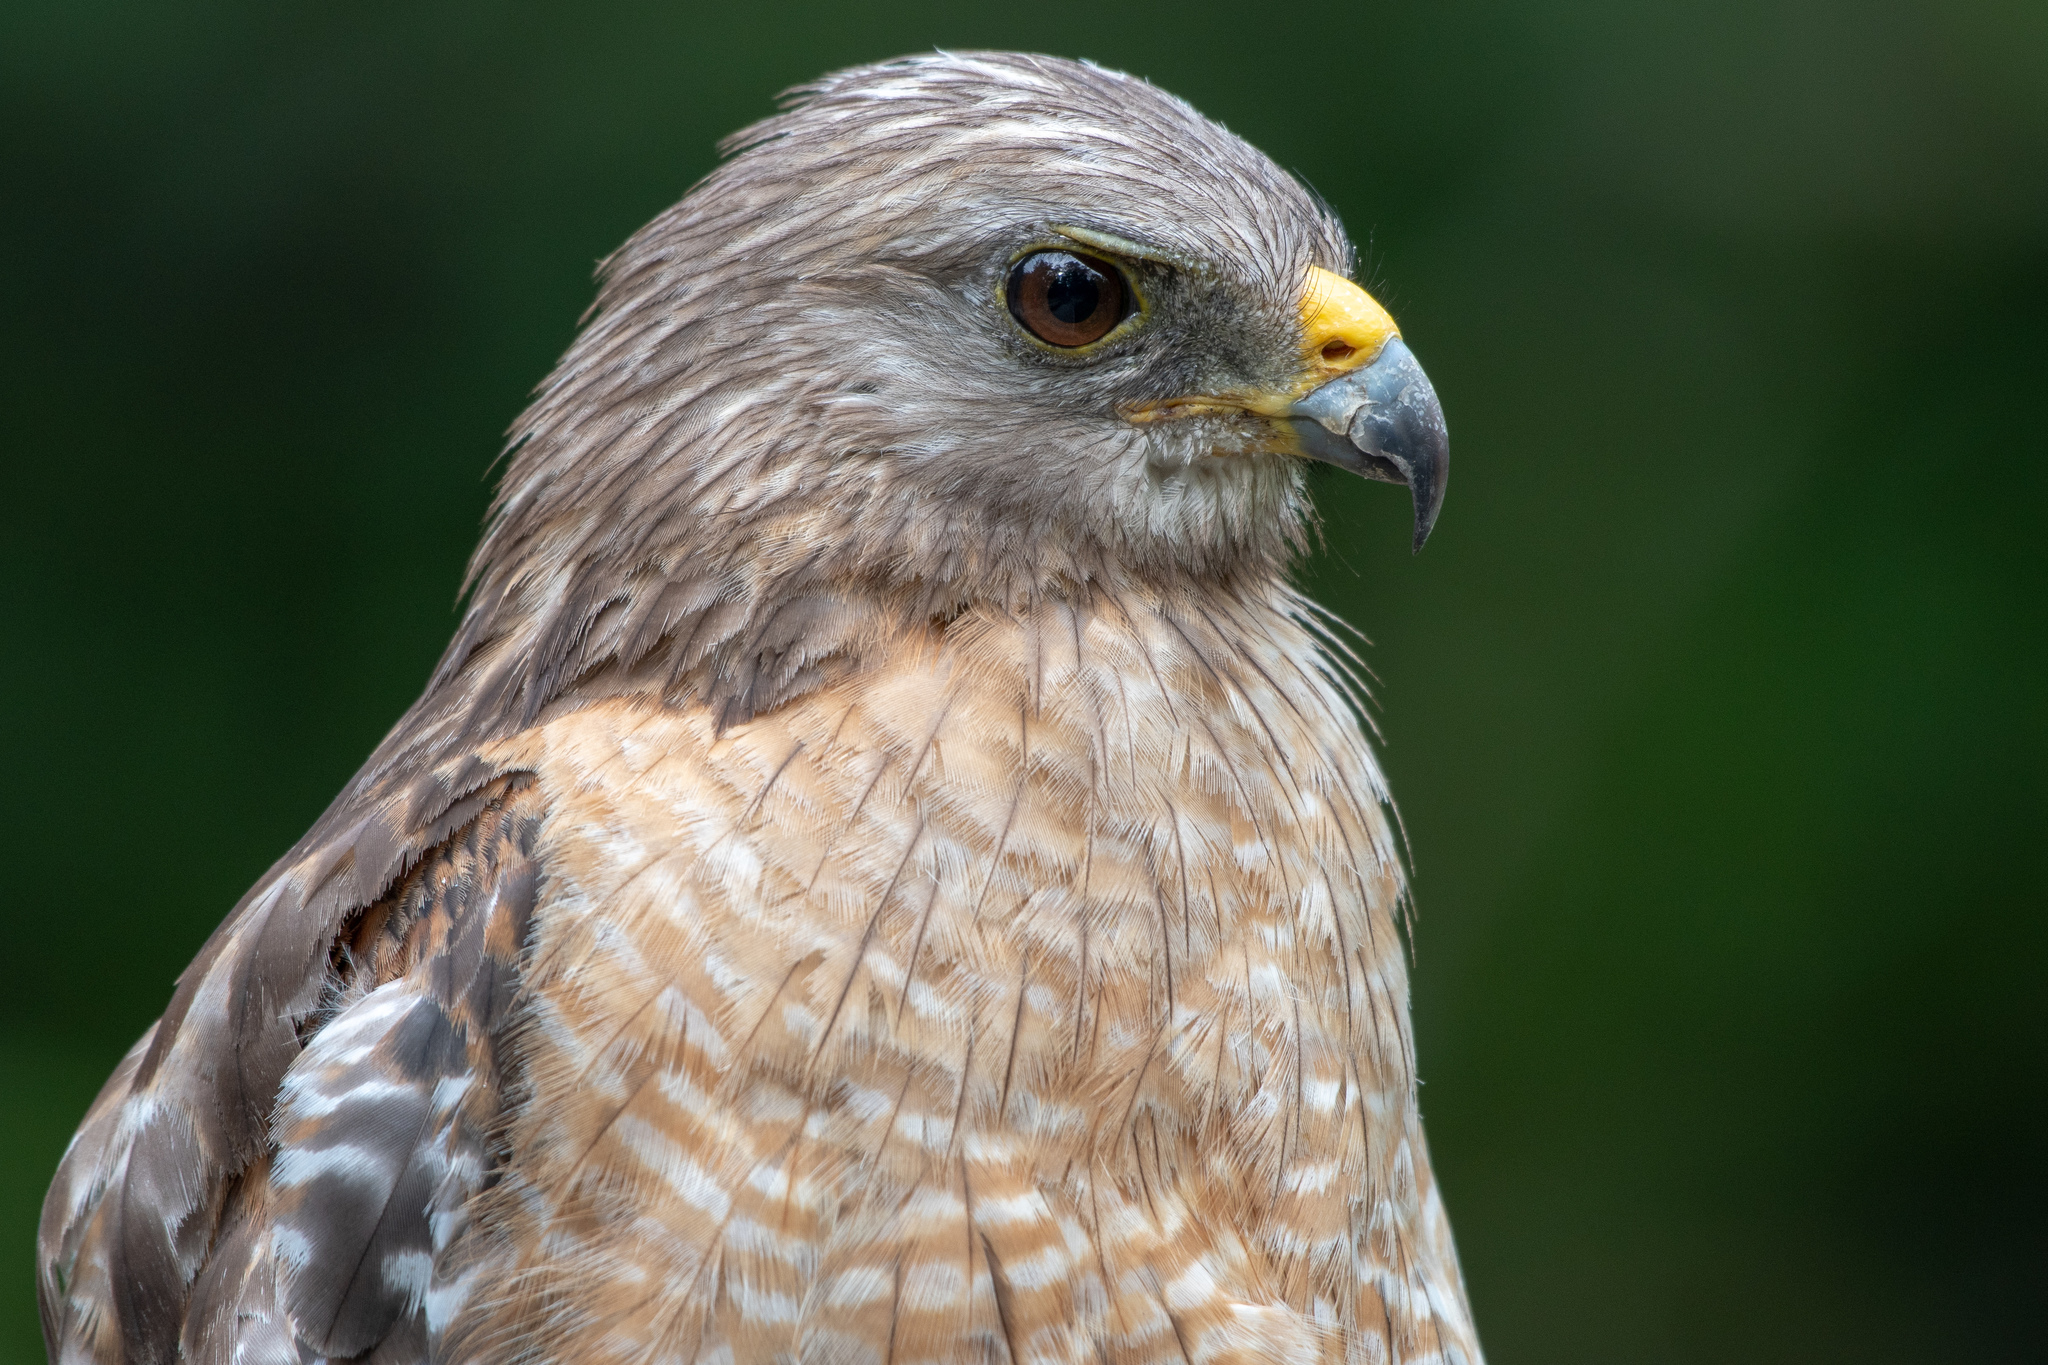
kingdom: Animalia
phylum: Chordata
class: Aves
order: Accipitriformes
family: Accipitridae
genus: Buteo
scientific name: Buteo lineatus
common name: Red-shouldered hawk
